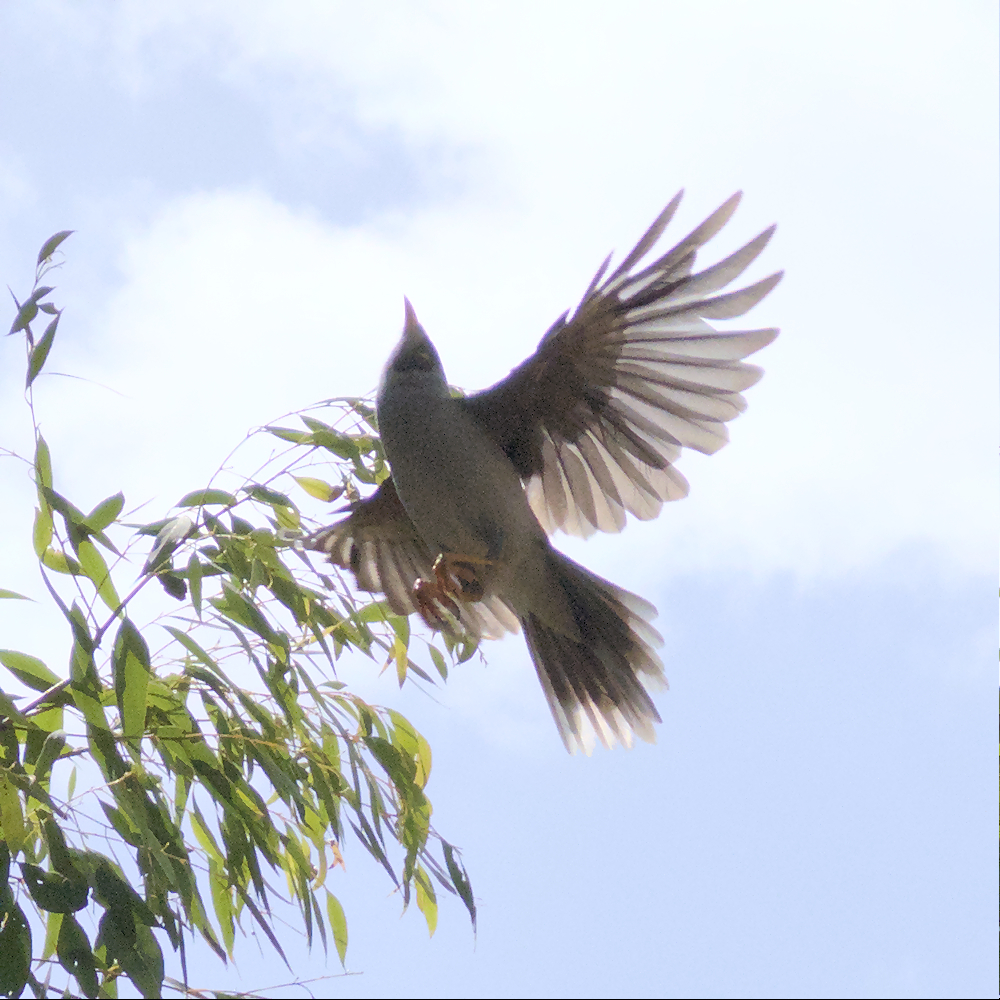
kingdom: Animalia
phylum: Chordata
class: Aves
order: Passeriformes
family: Meliphagidae
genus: Manorina
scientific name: Manorina melanocephala
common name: Noisy miner
